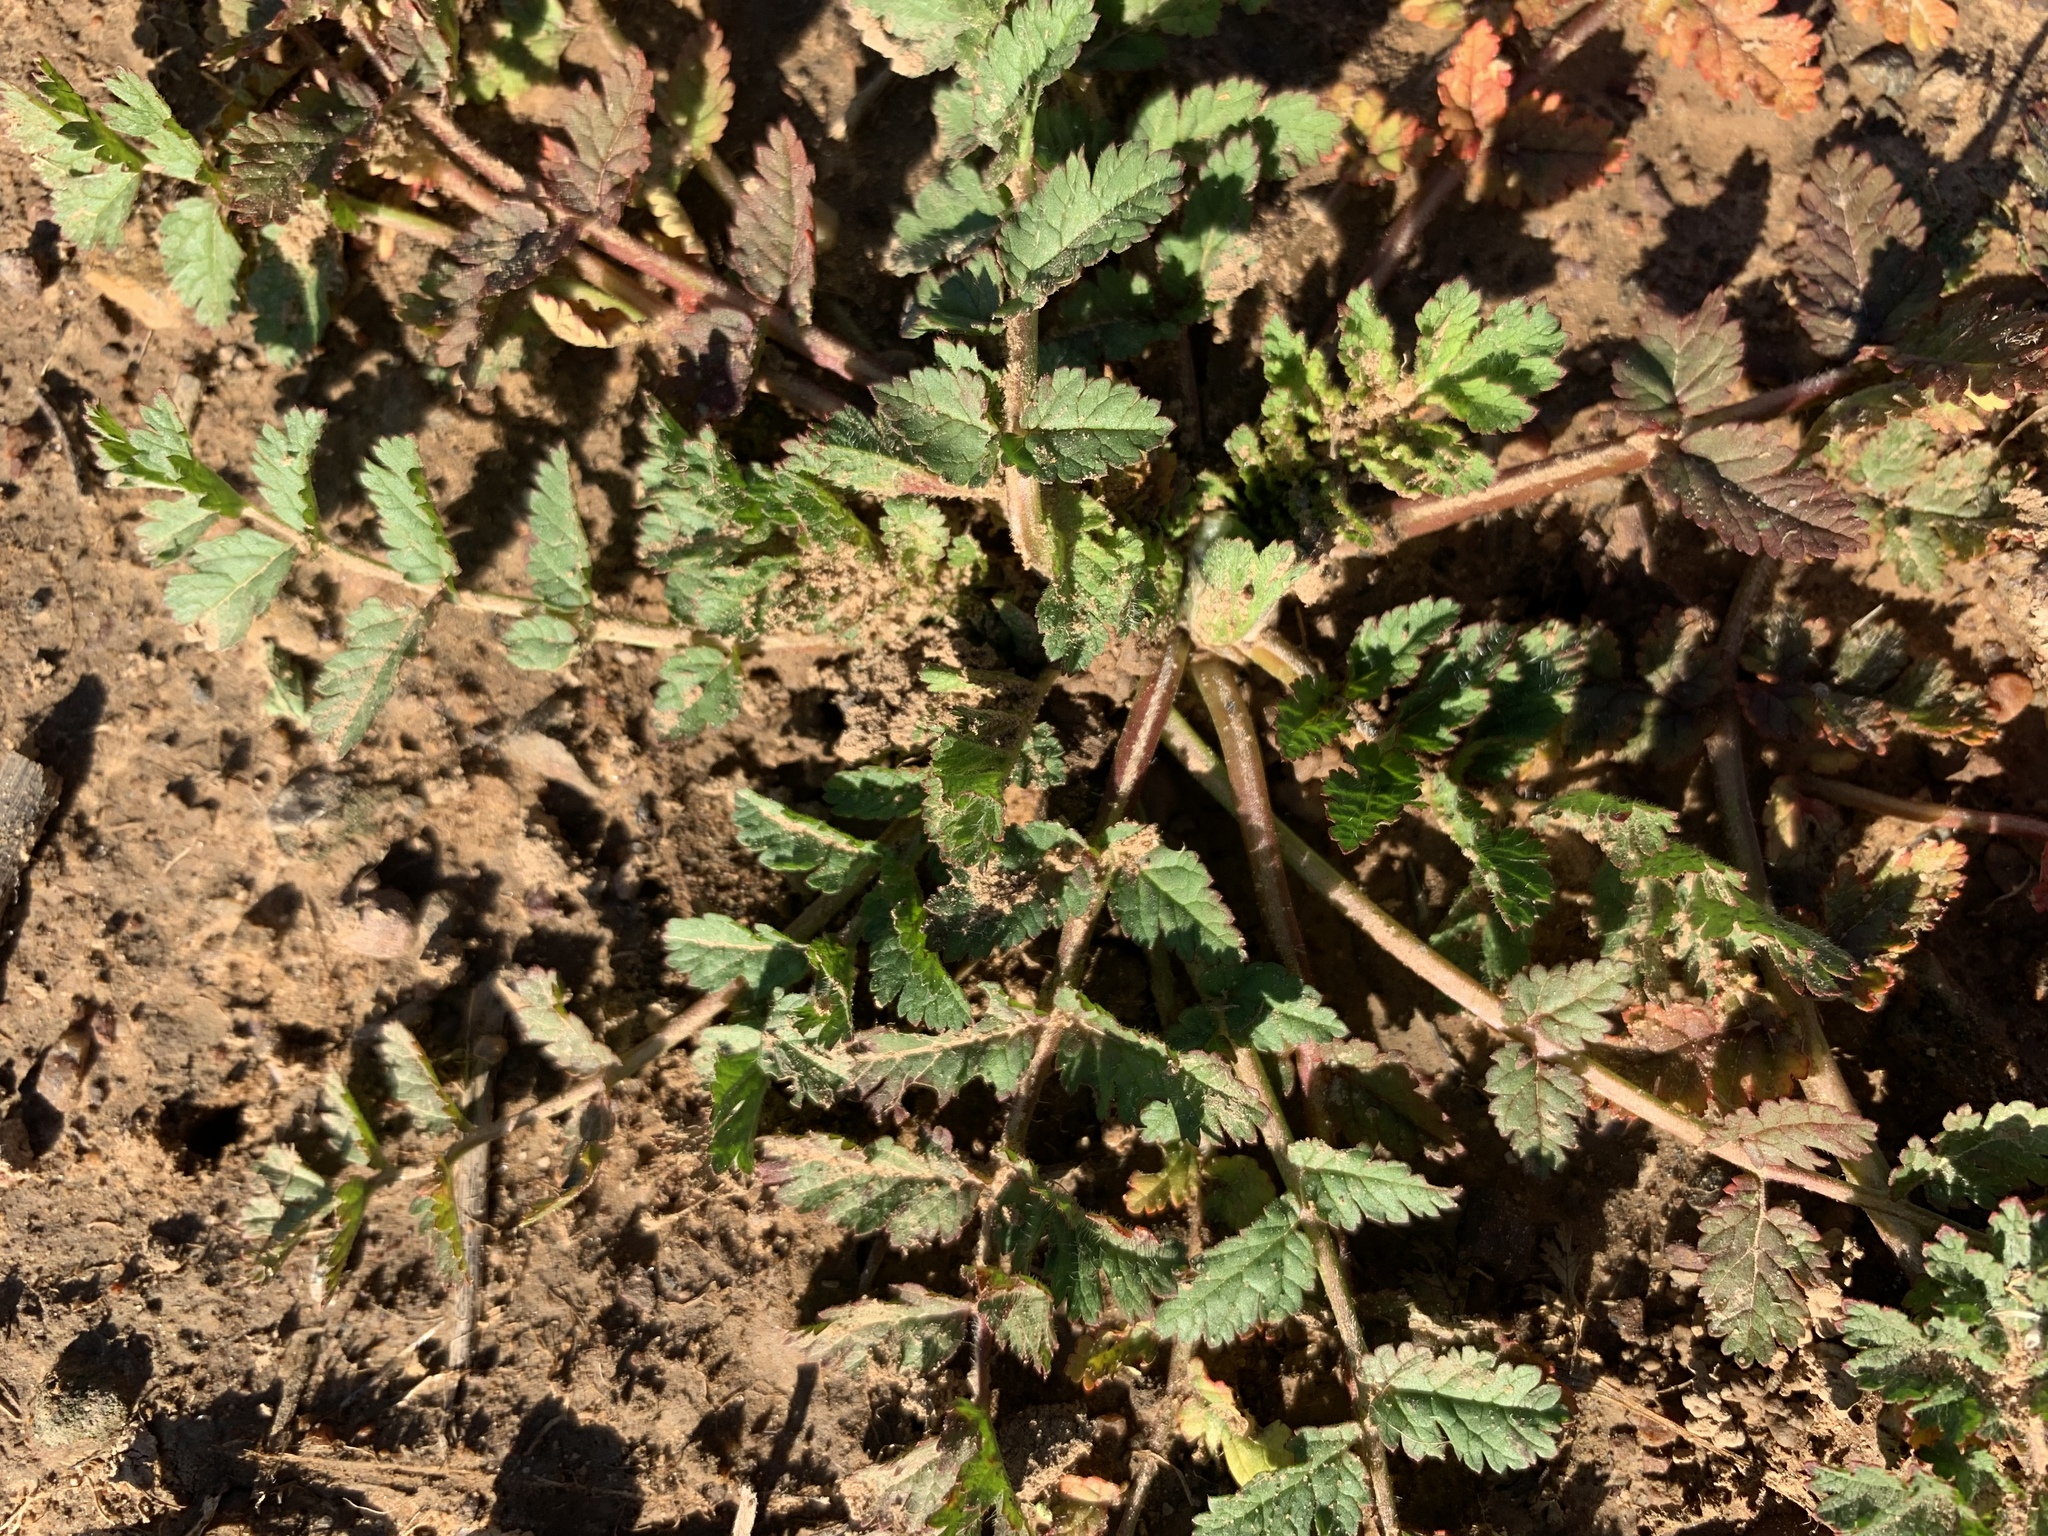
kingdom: Plantae
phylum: Tracheophyta
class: Magnoliopsida
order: Geraniales
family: Geraniaceae
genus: Erodium
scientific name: Erodium moschatum
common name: Musk stork's-bill
